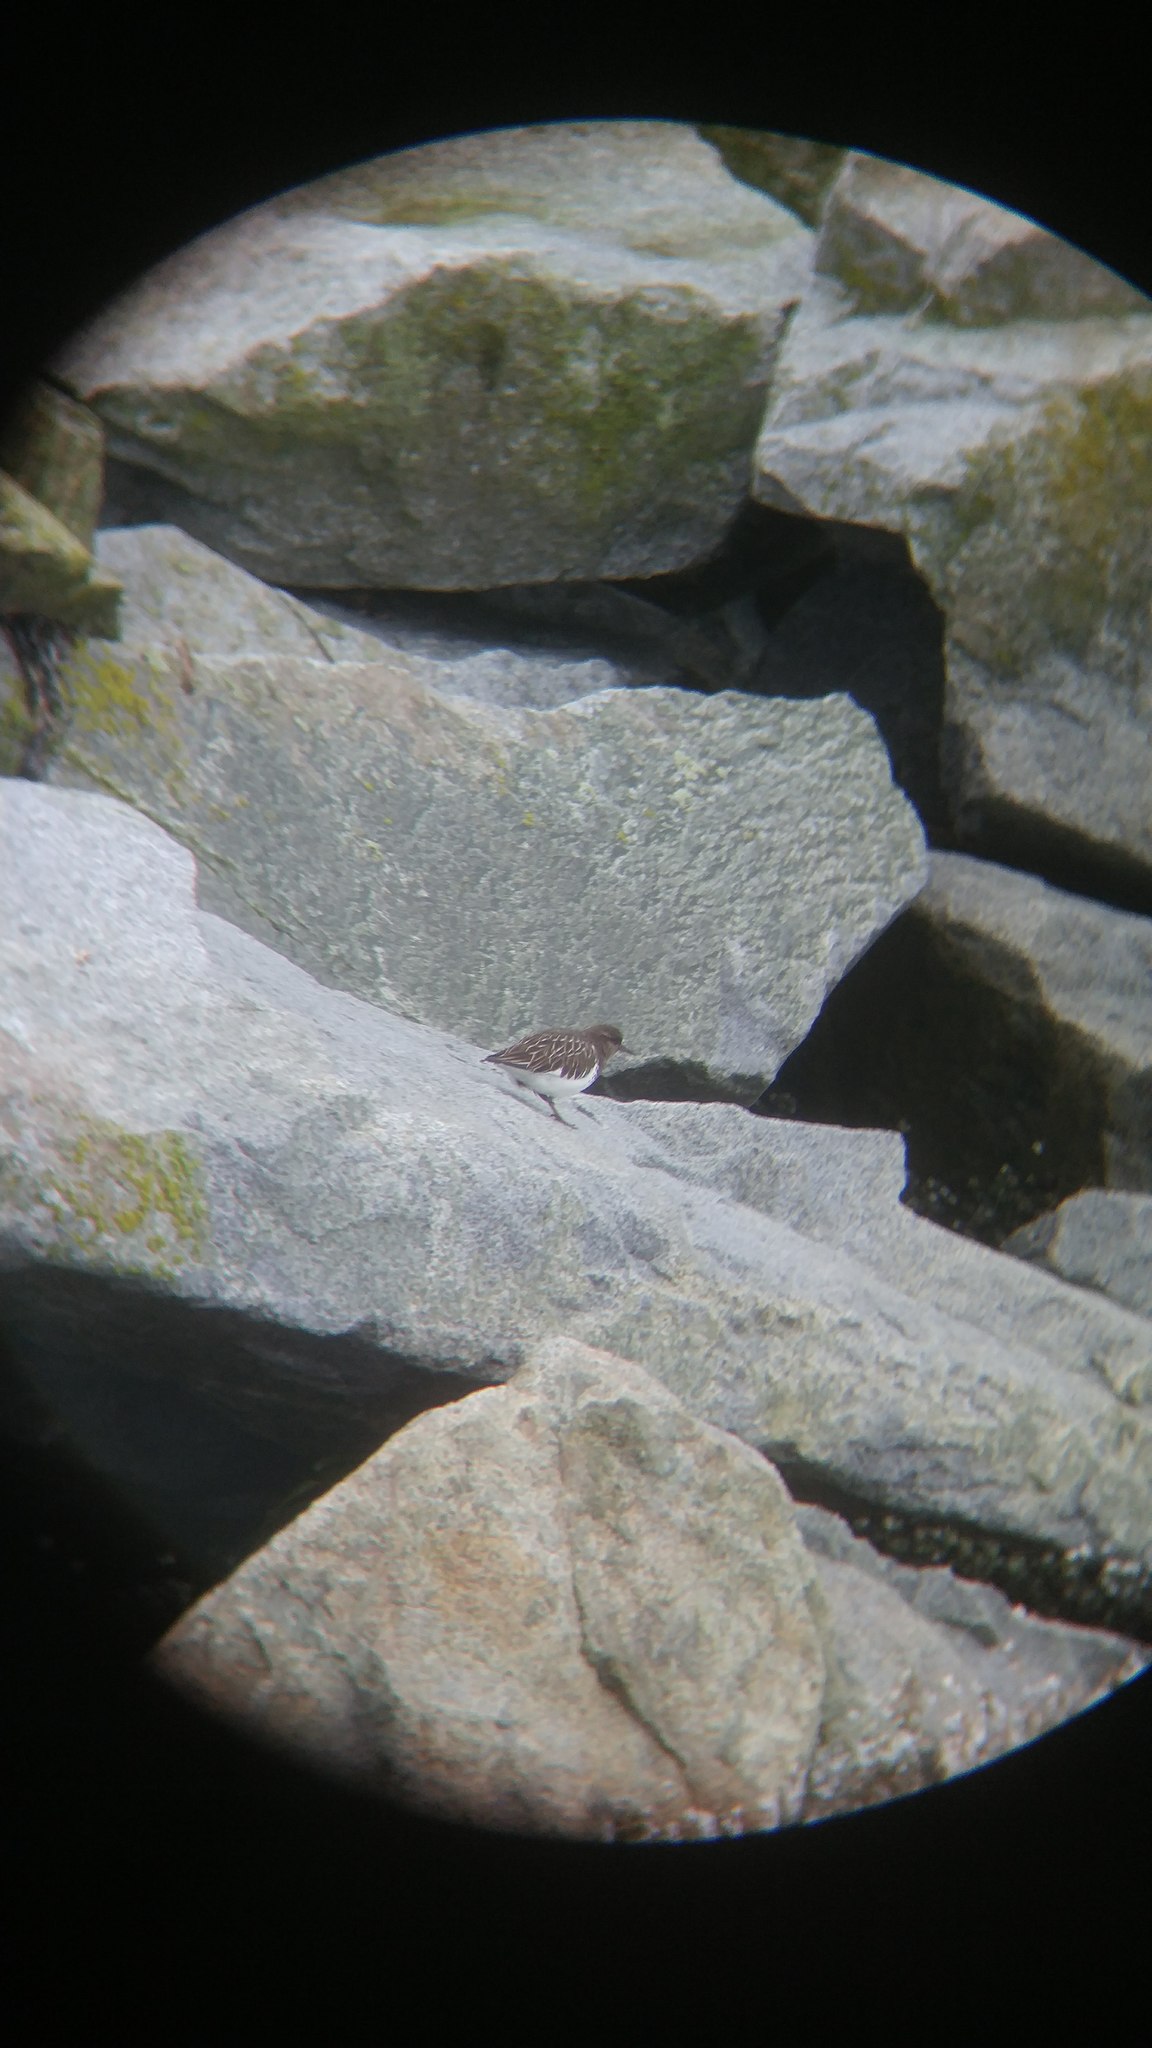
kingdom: Animalia
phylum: Chordata
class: Aves
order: Charadriiformes
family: Scolopacidae
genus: Arenaria
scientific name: Arenaria melanocephala
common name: Black turnstone
